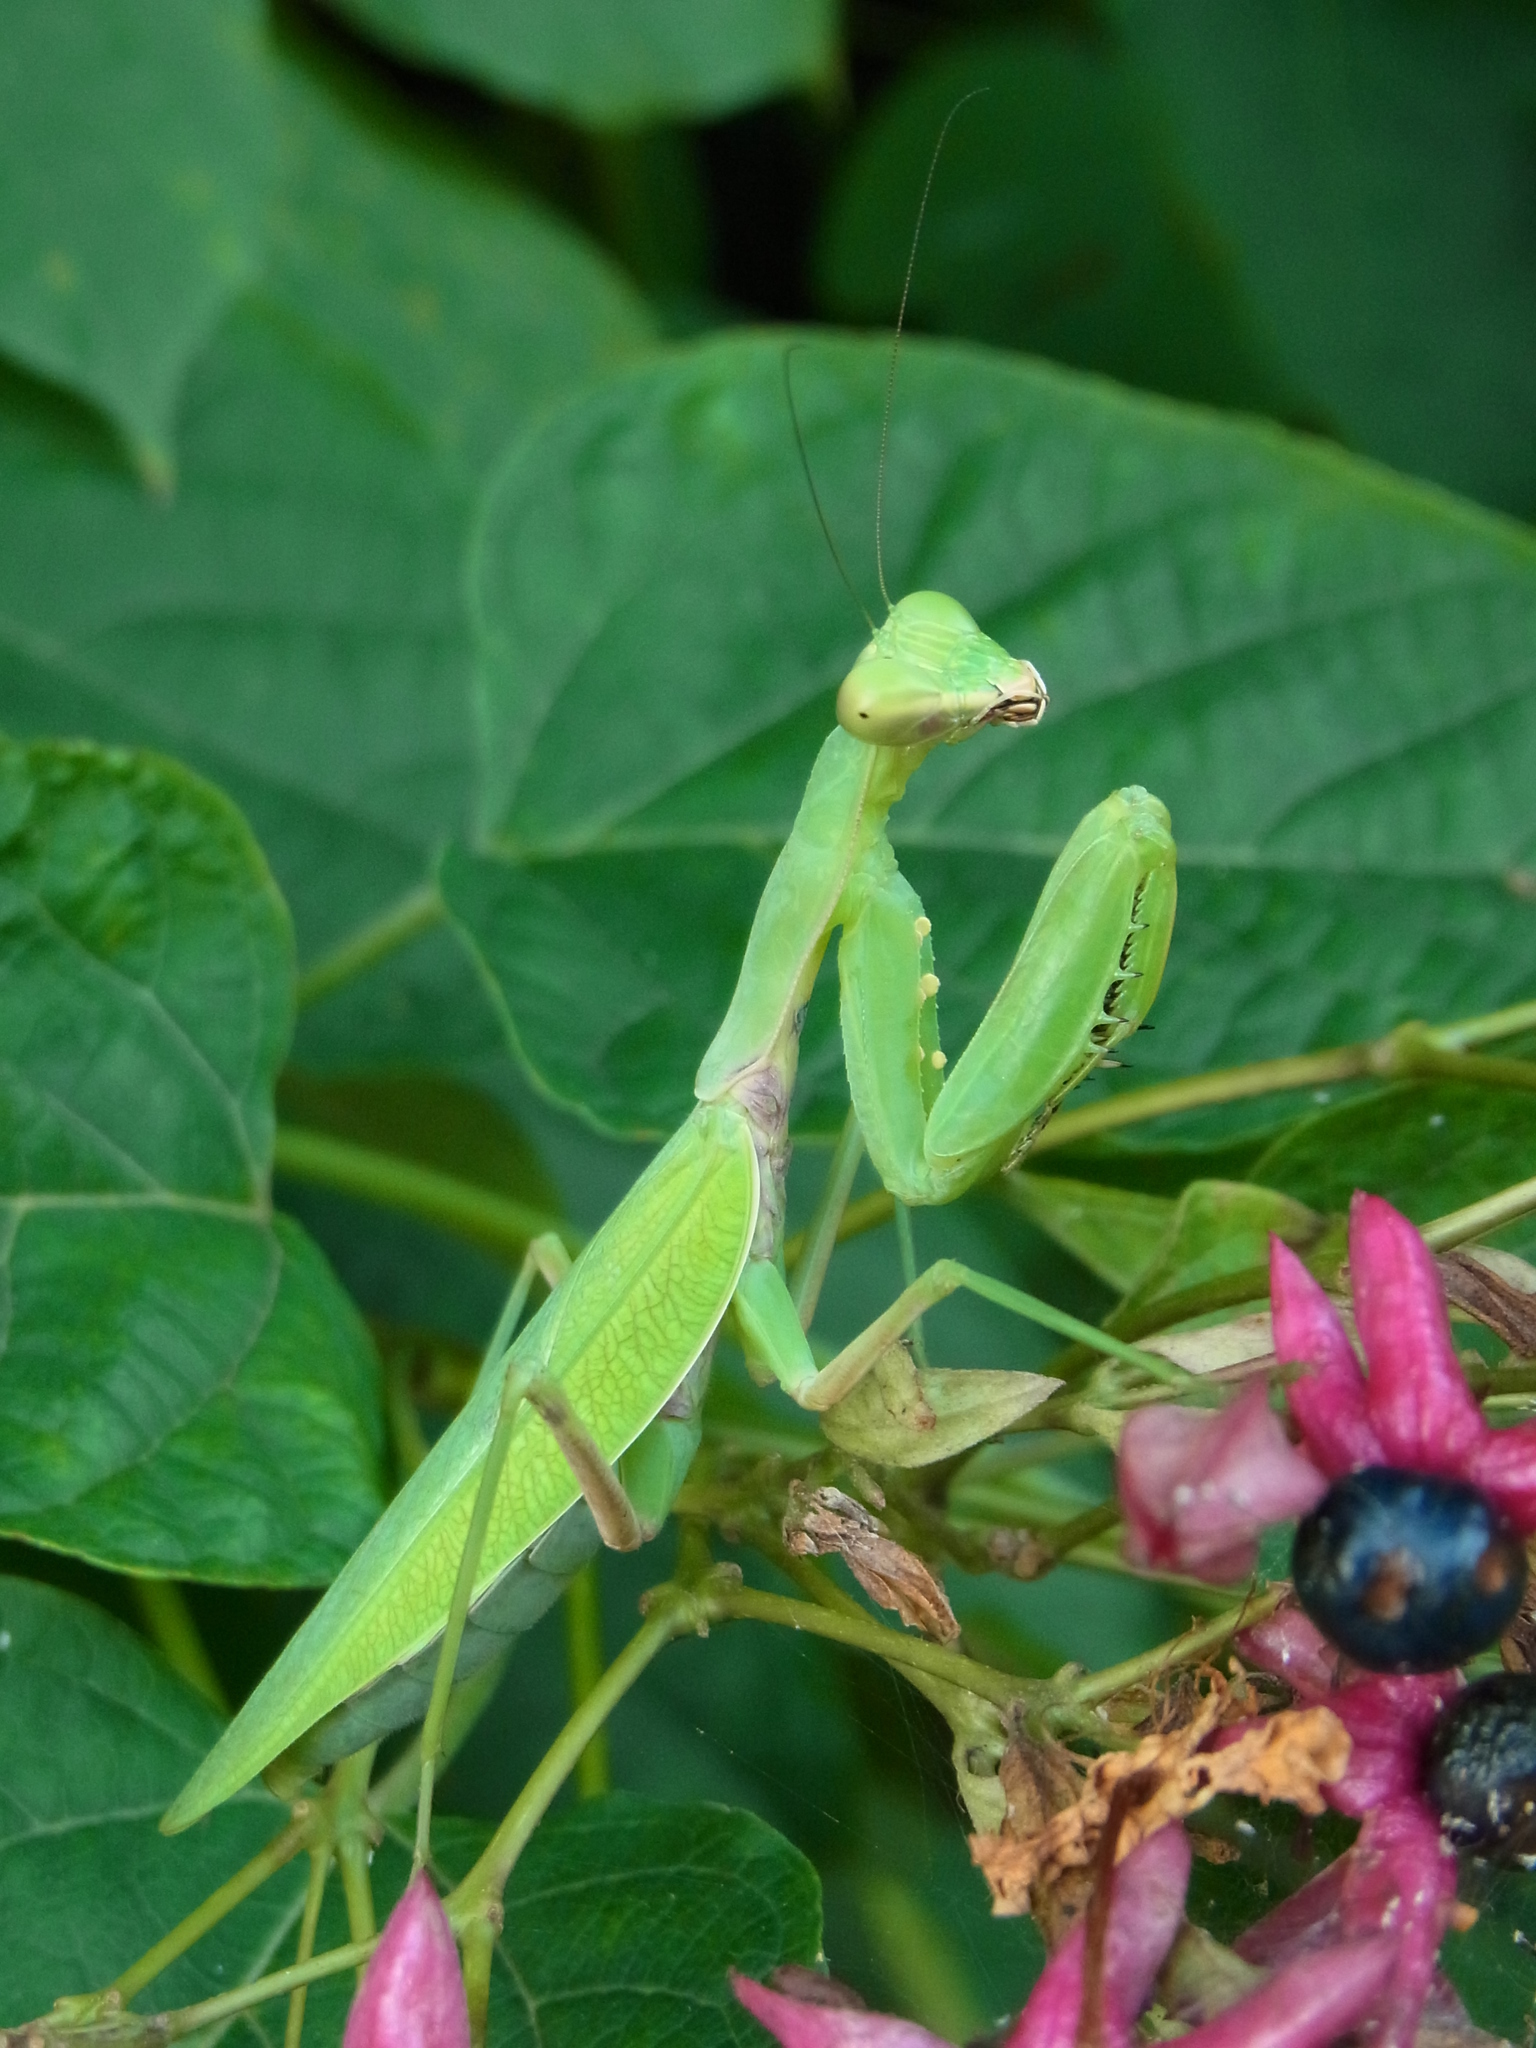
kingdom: Animalia
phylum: Arthropoda
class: Insecta
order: Mantodea
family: Mantidae
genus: Hierodula
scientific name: Hierodula patellifera
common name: Asian mantis
